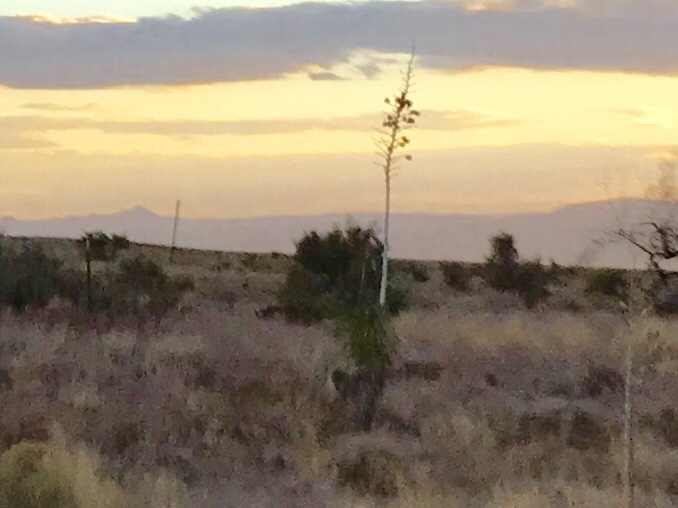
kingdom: Plantae
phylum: Tracheophyta
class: Liliopsida
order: Asparagales
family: Asparagaceae
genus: Yucca
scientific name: Yucca elata
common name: Palmella
